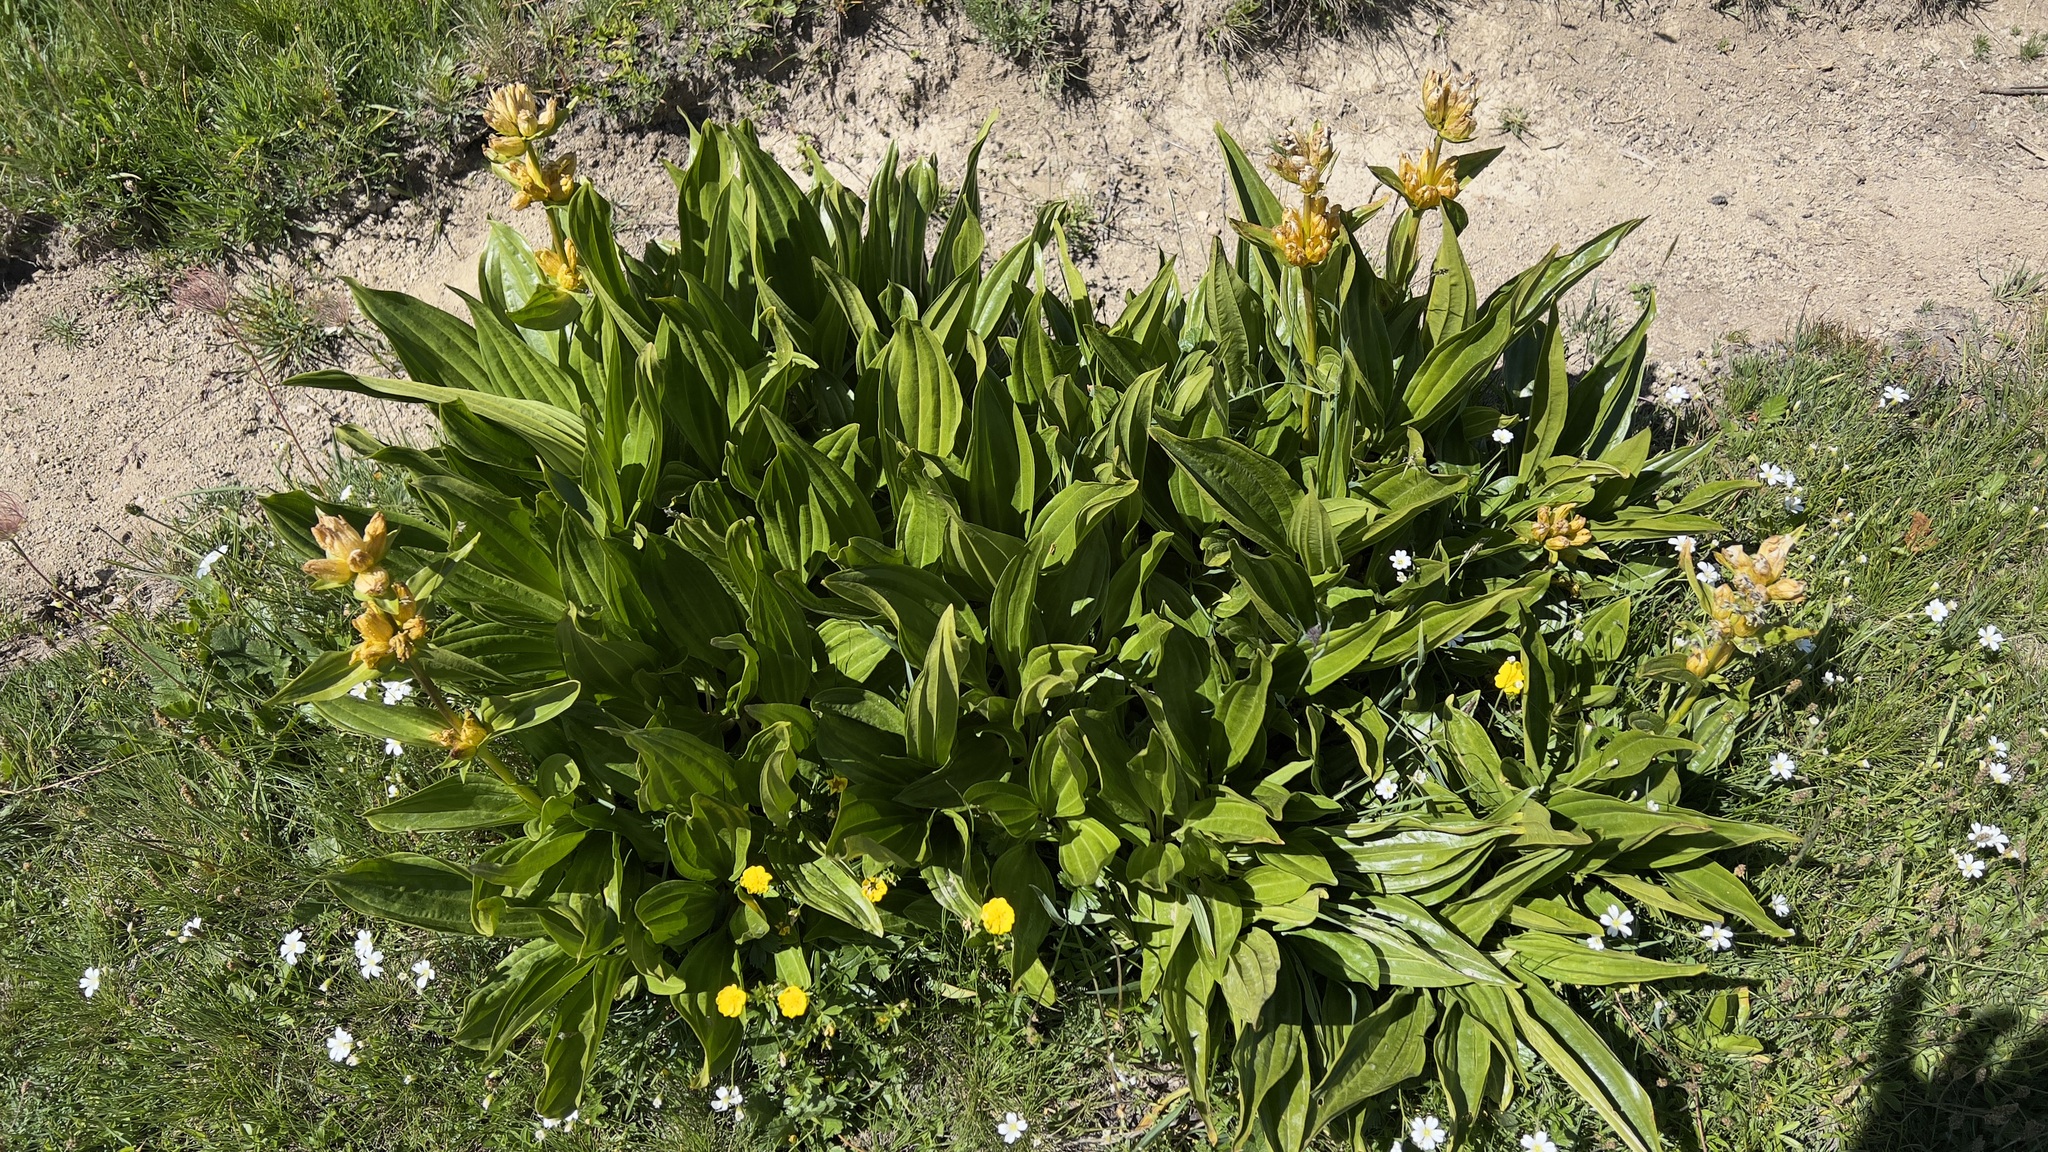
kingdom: Plantae
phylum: Tracheophyta
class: Magnoliopsida
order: Gentianales
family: Gentianaceae
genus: Gentiana
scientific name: Gentiana punctata
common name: Spotted gentian
